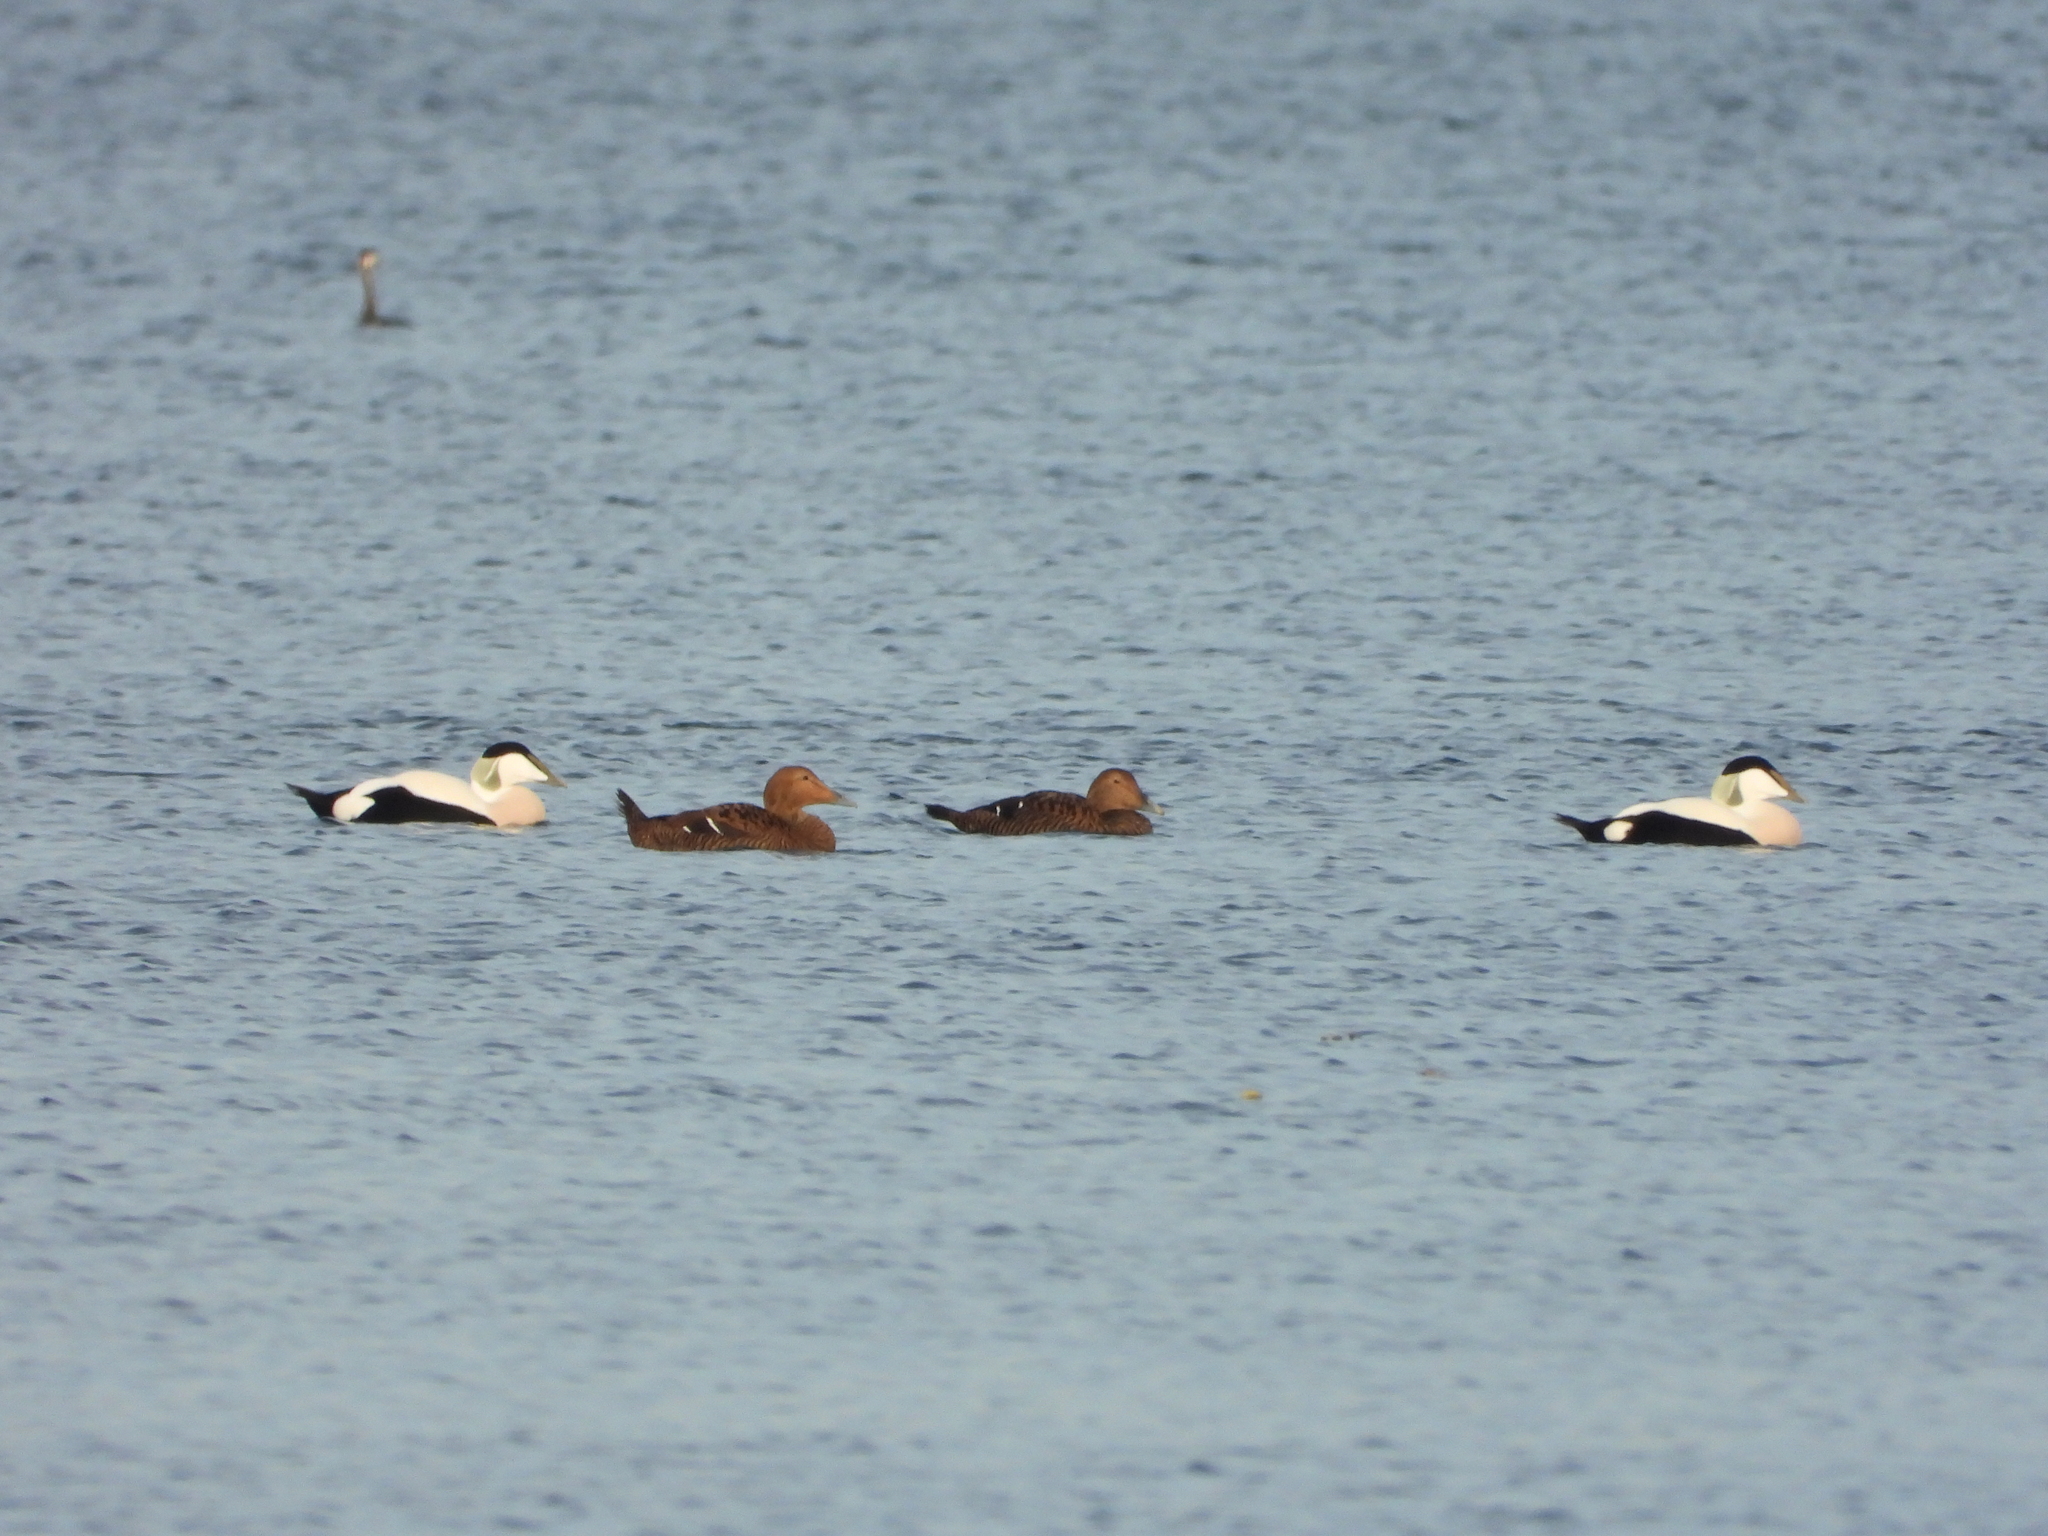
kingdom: Animalia
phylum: Chordata
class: Aves
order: Anseriformes
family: Anatidae
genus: Somateria
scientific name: Somateria mollissima
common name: Common eider
